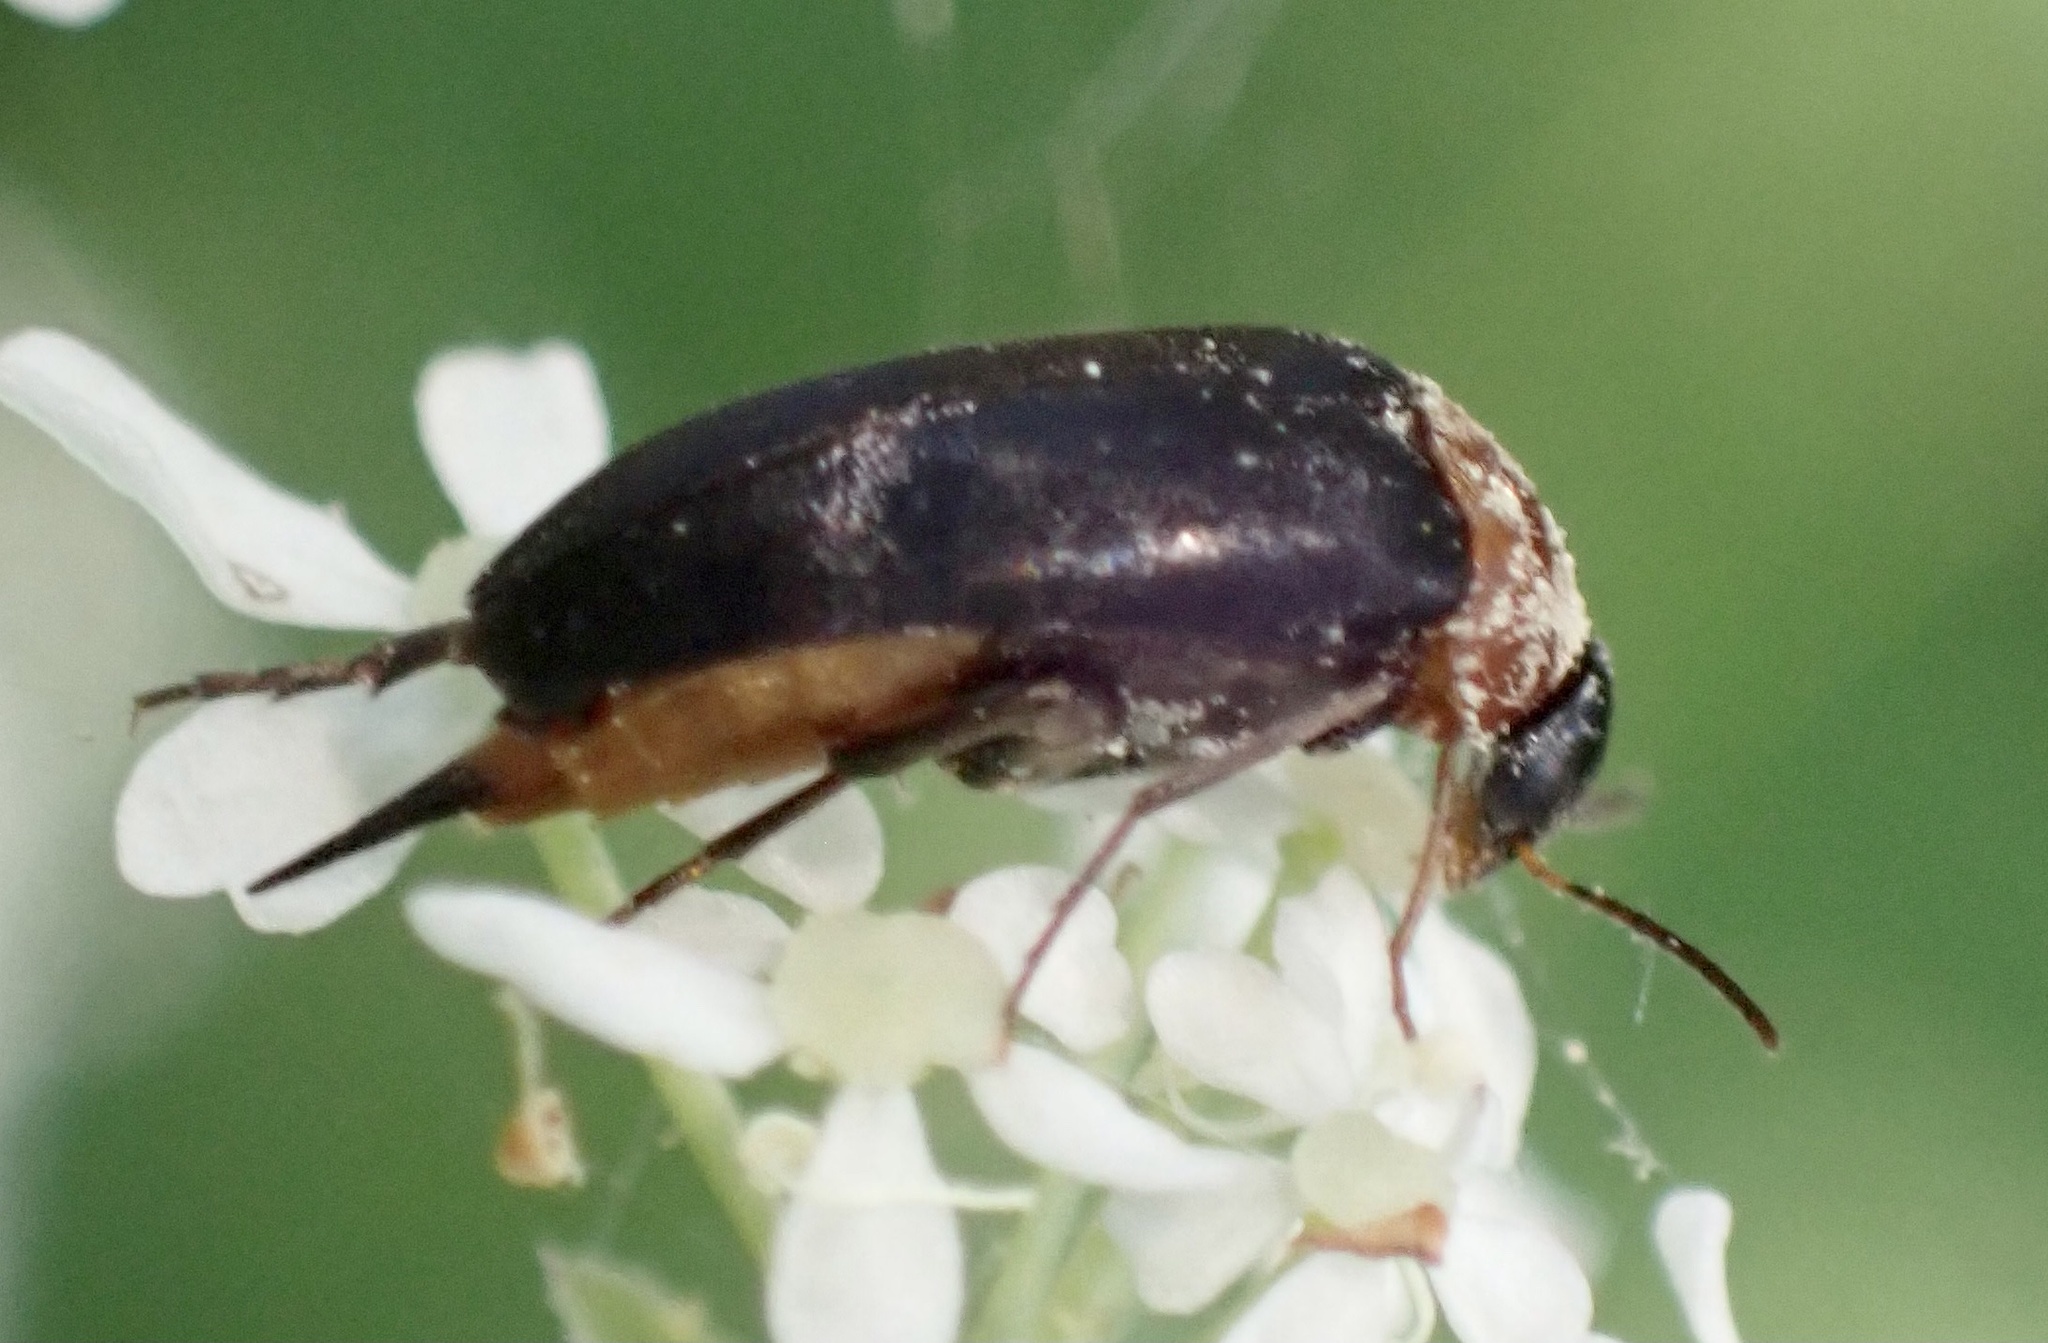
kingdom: Animalia
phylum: Arthropoda
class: Insecta
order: Coleoptera
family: Mordellidae
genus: Mordellochroa
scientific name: Mordellochroa abdominalis
